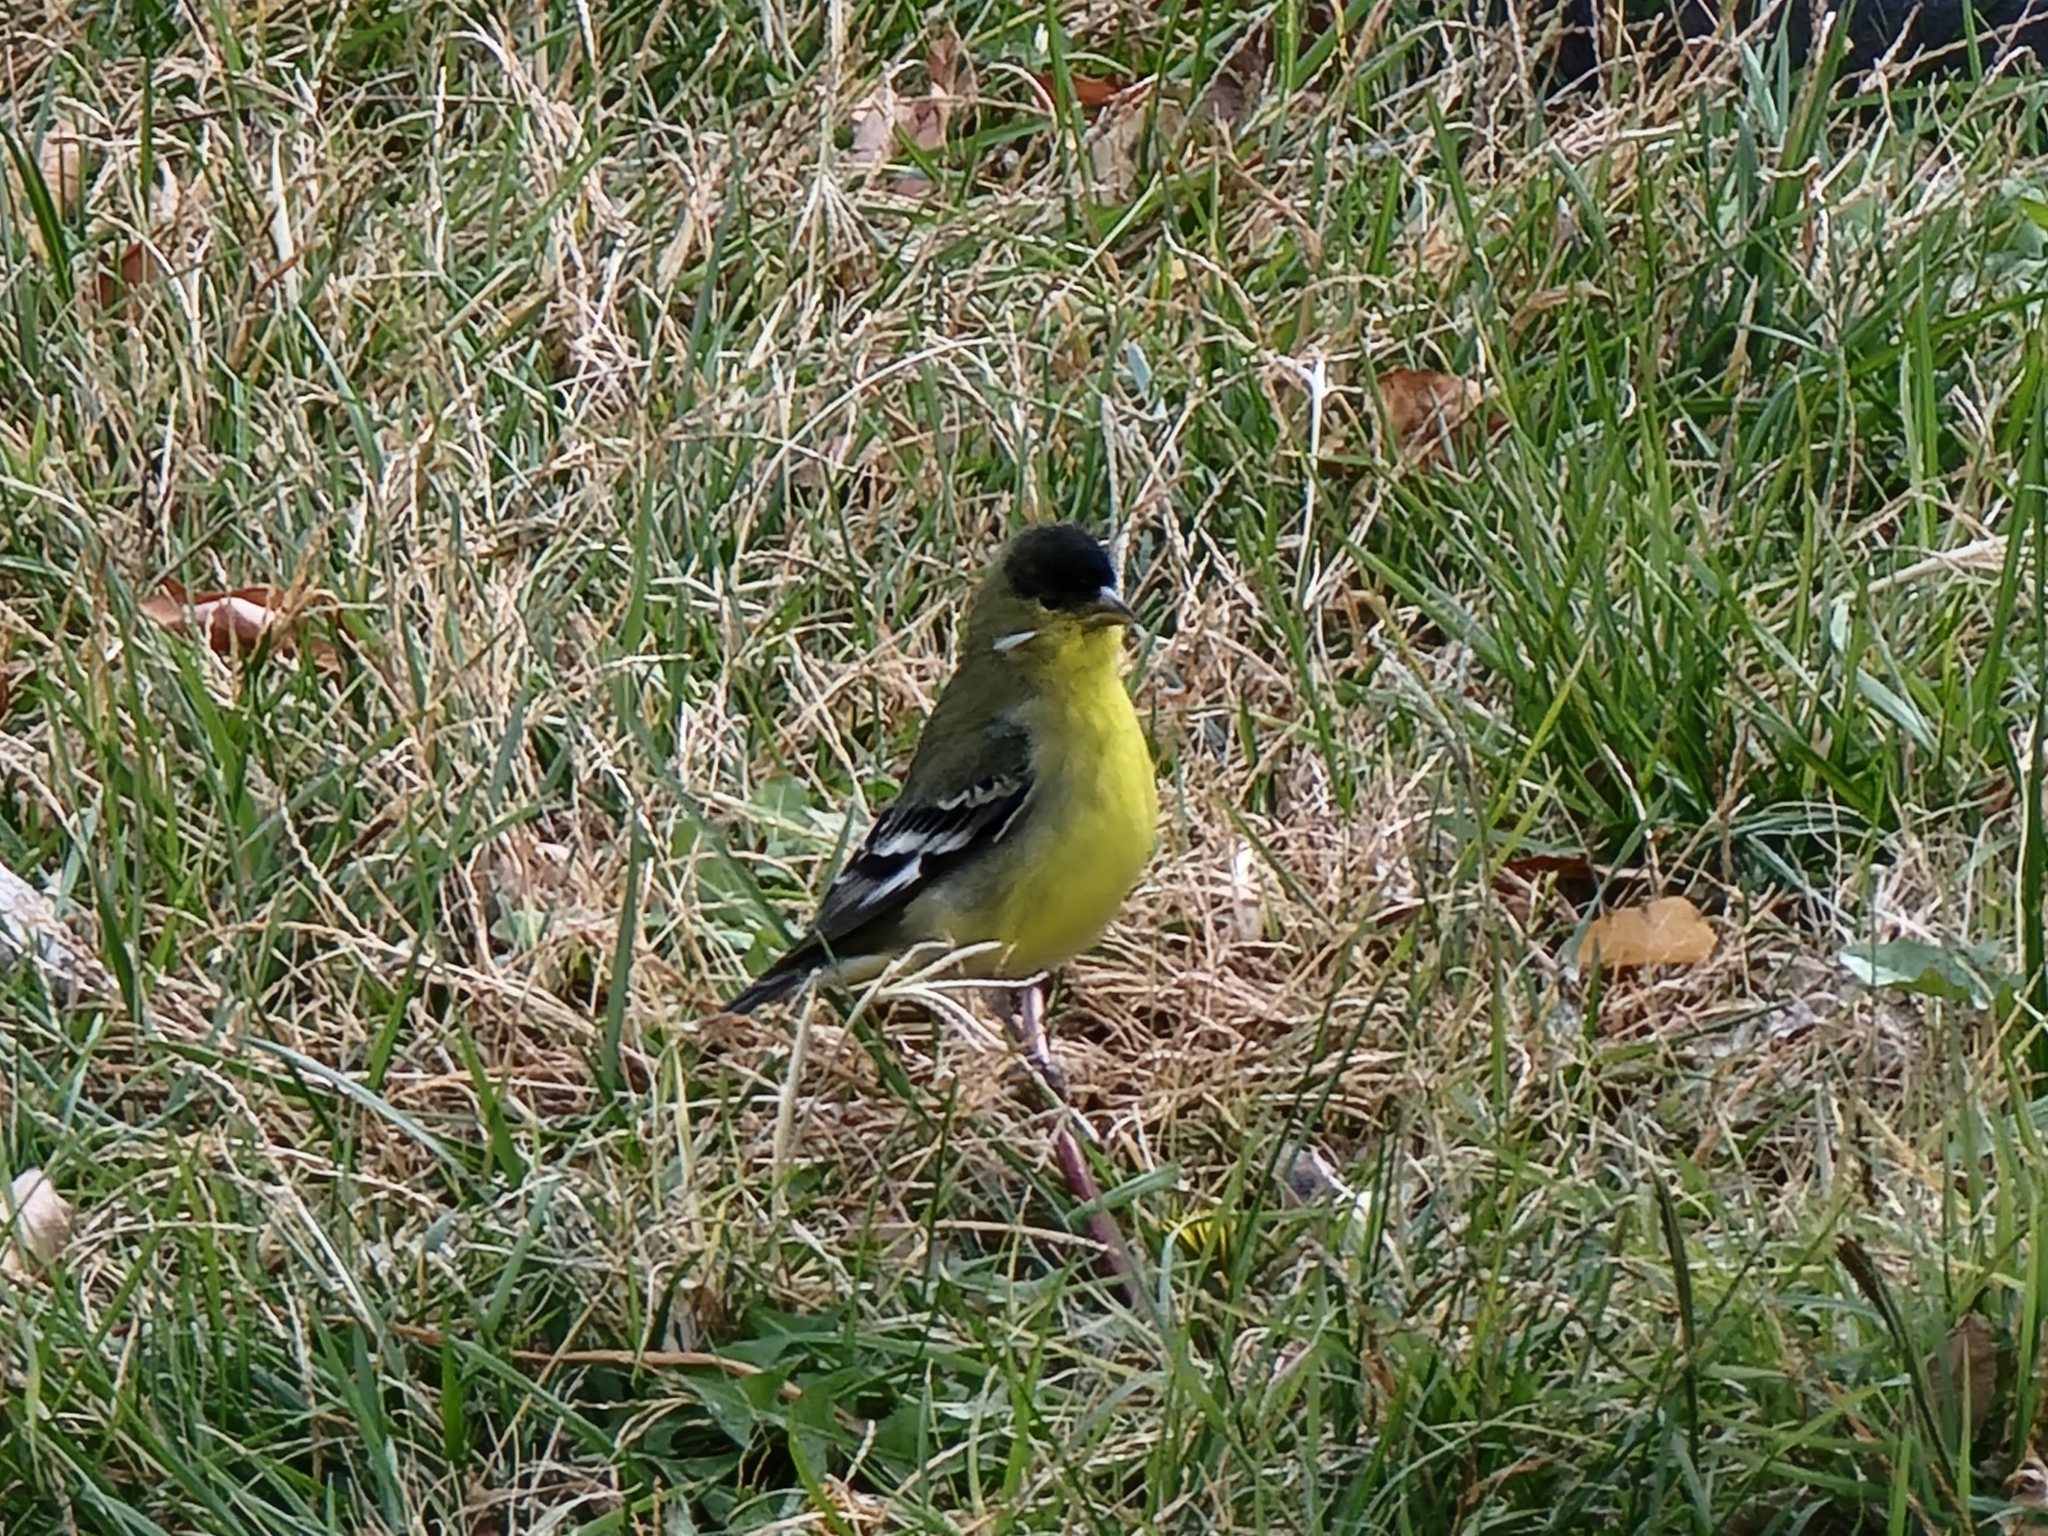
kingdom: Animalia
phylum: Chordata
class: Aves
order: Passeriformes
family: Fringillidae
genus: Spinus
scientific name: Spinus psaltria
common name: Lesser goldfinch
